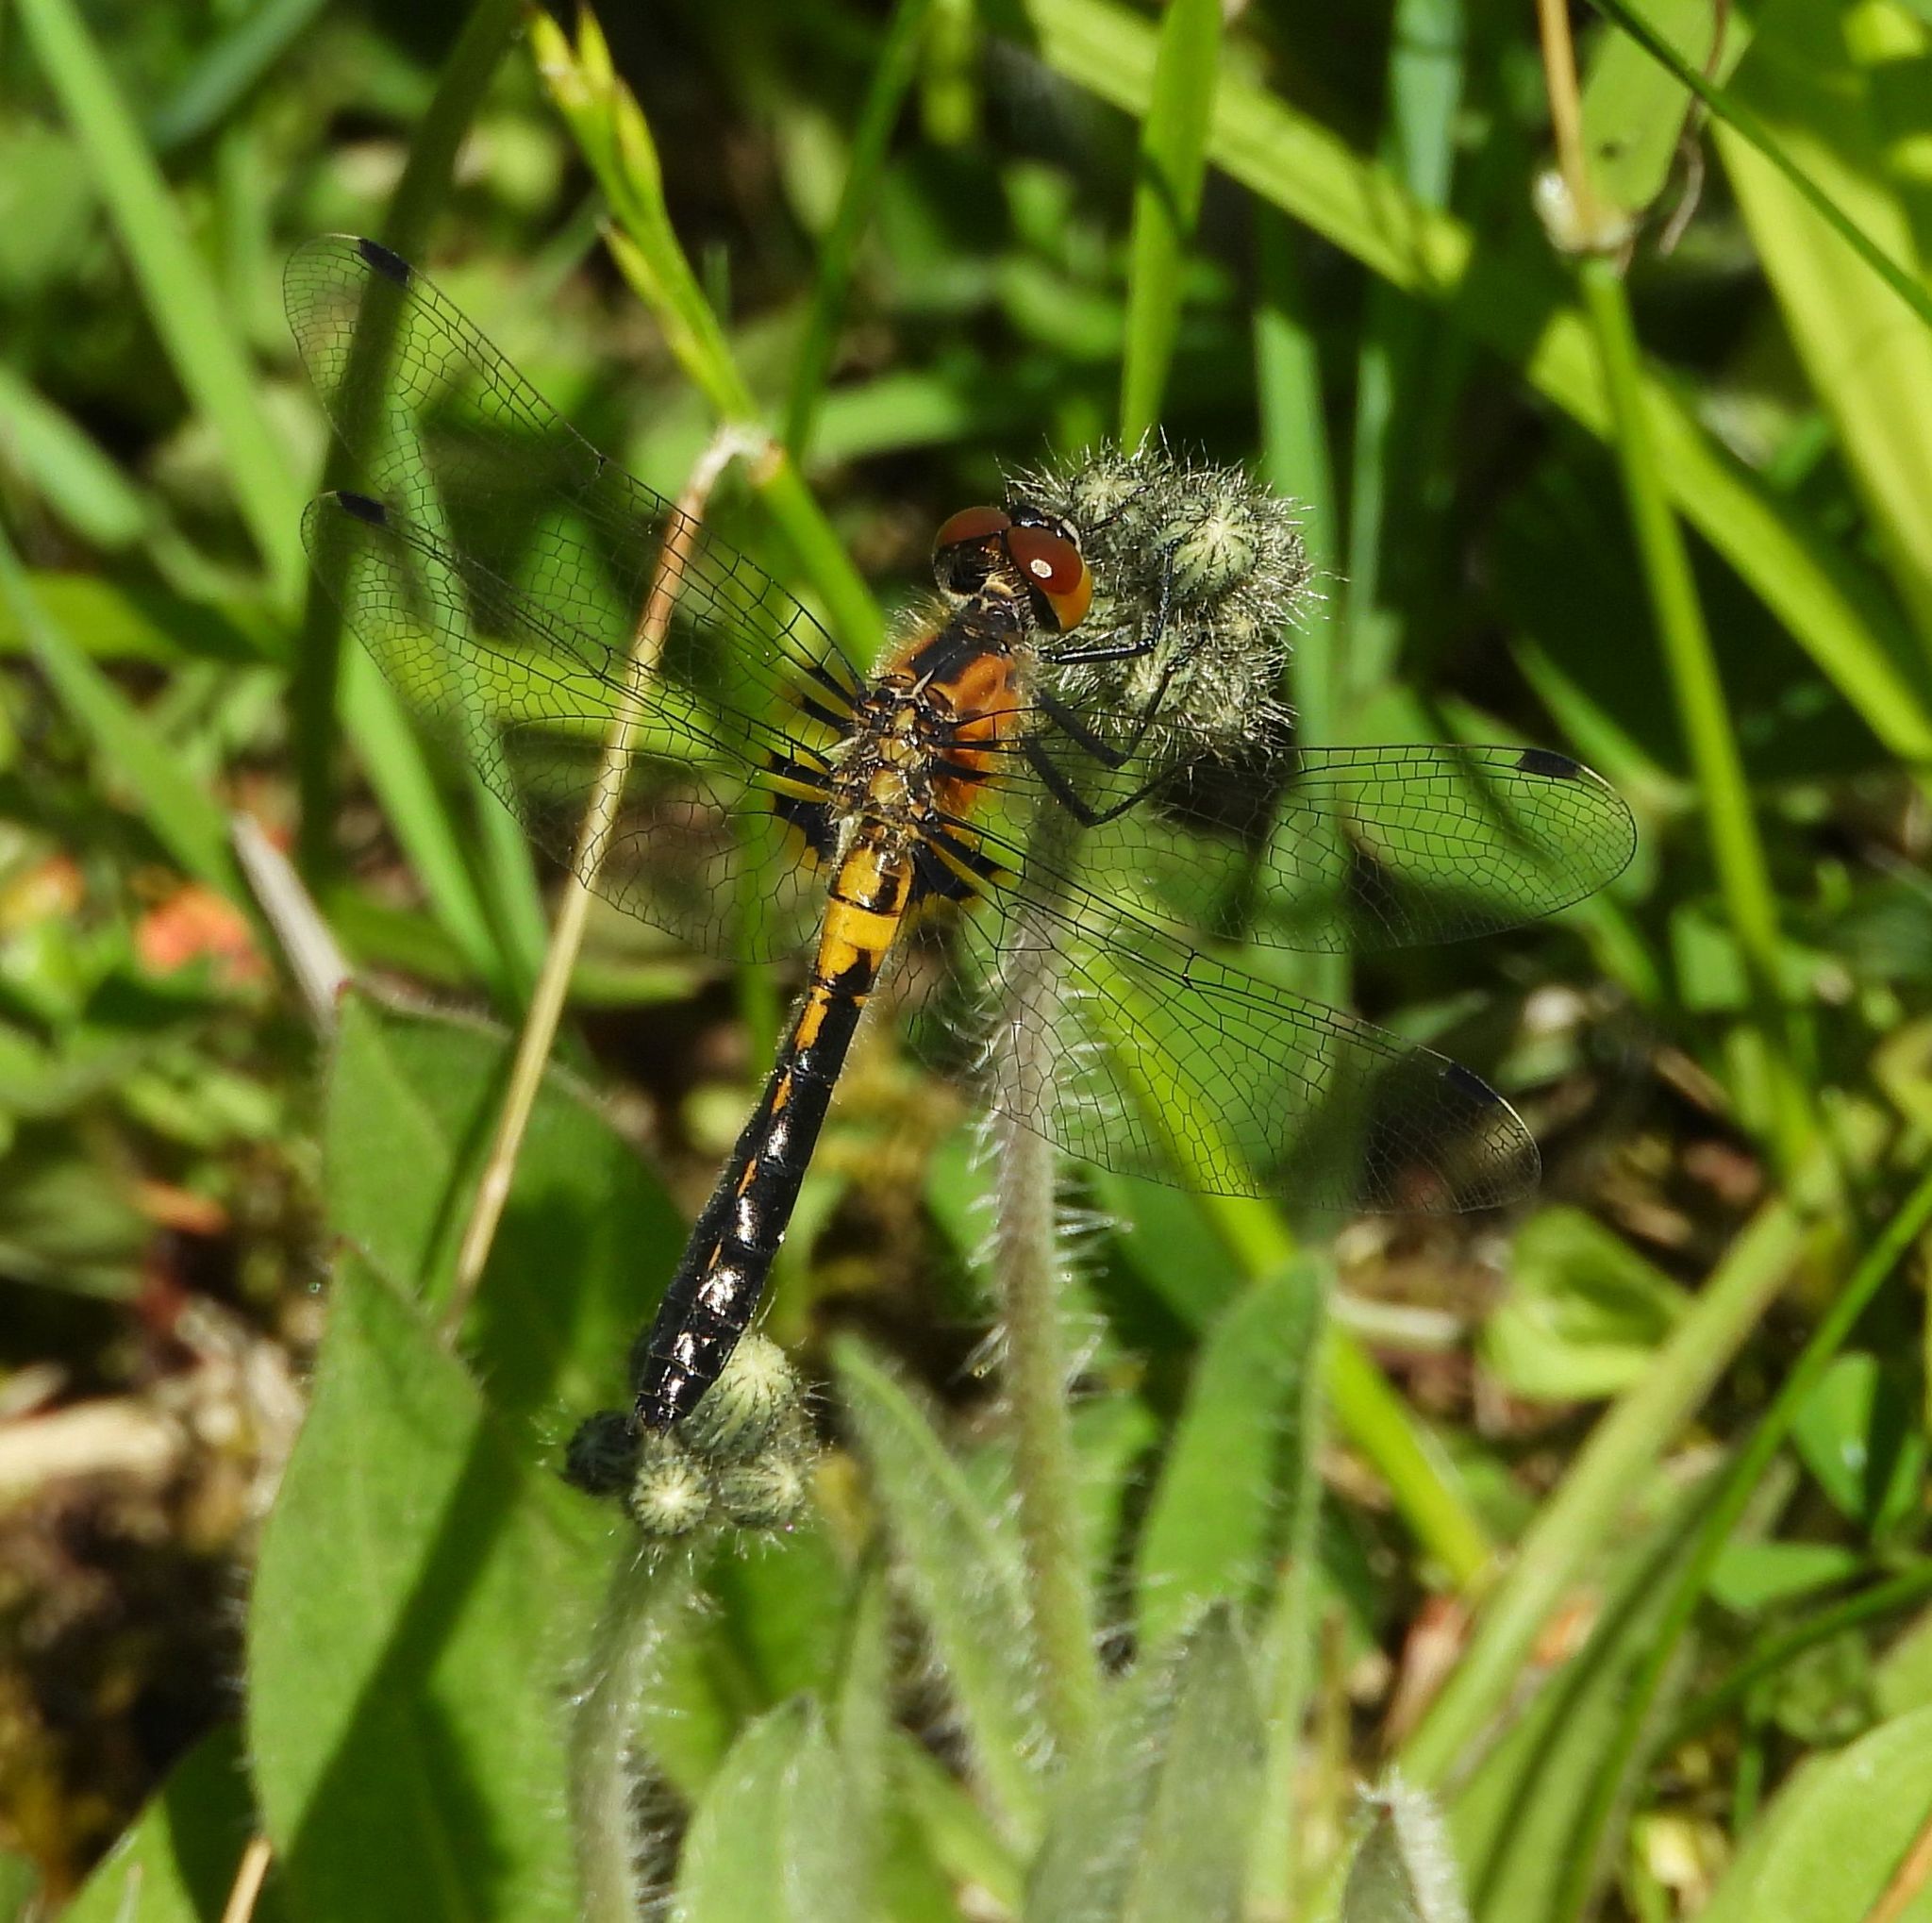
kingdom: Animalia
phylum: Arthropoda
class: Insecta
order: Odonata
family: Libellulidae
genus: Leucorrhinia
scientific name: Leucorrhinia frigida
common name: Frosted whiteface
